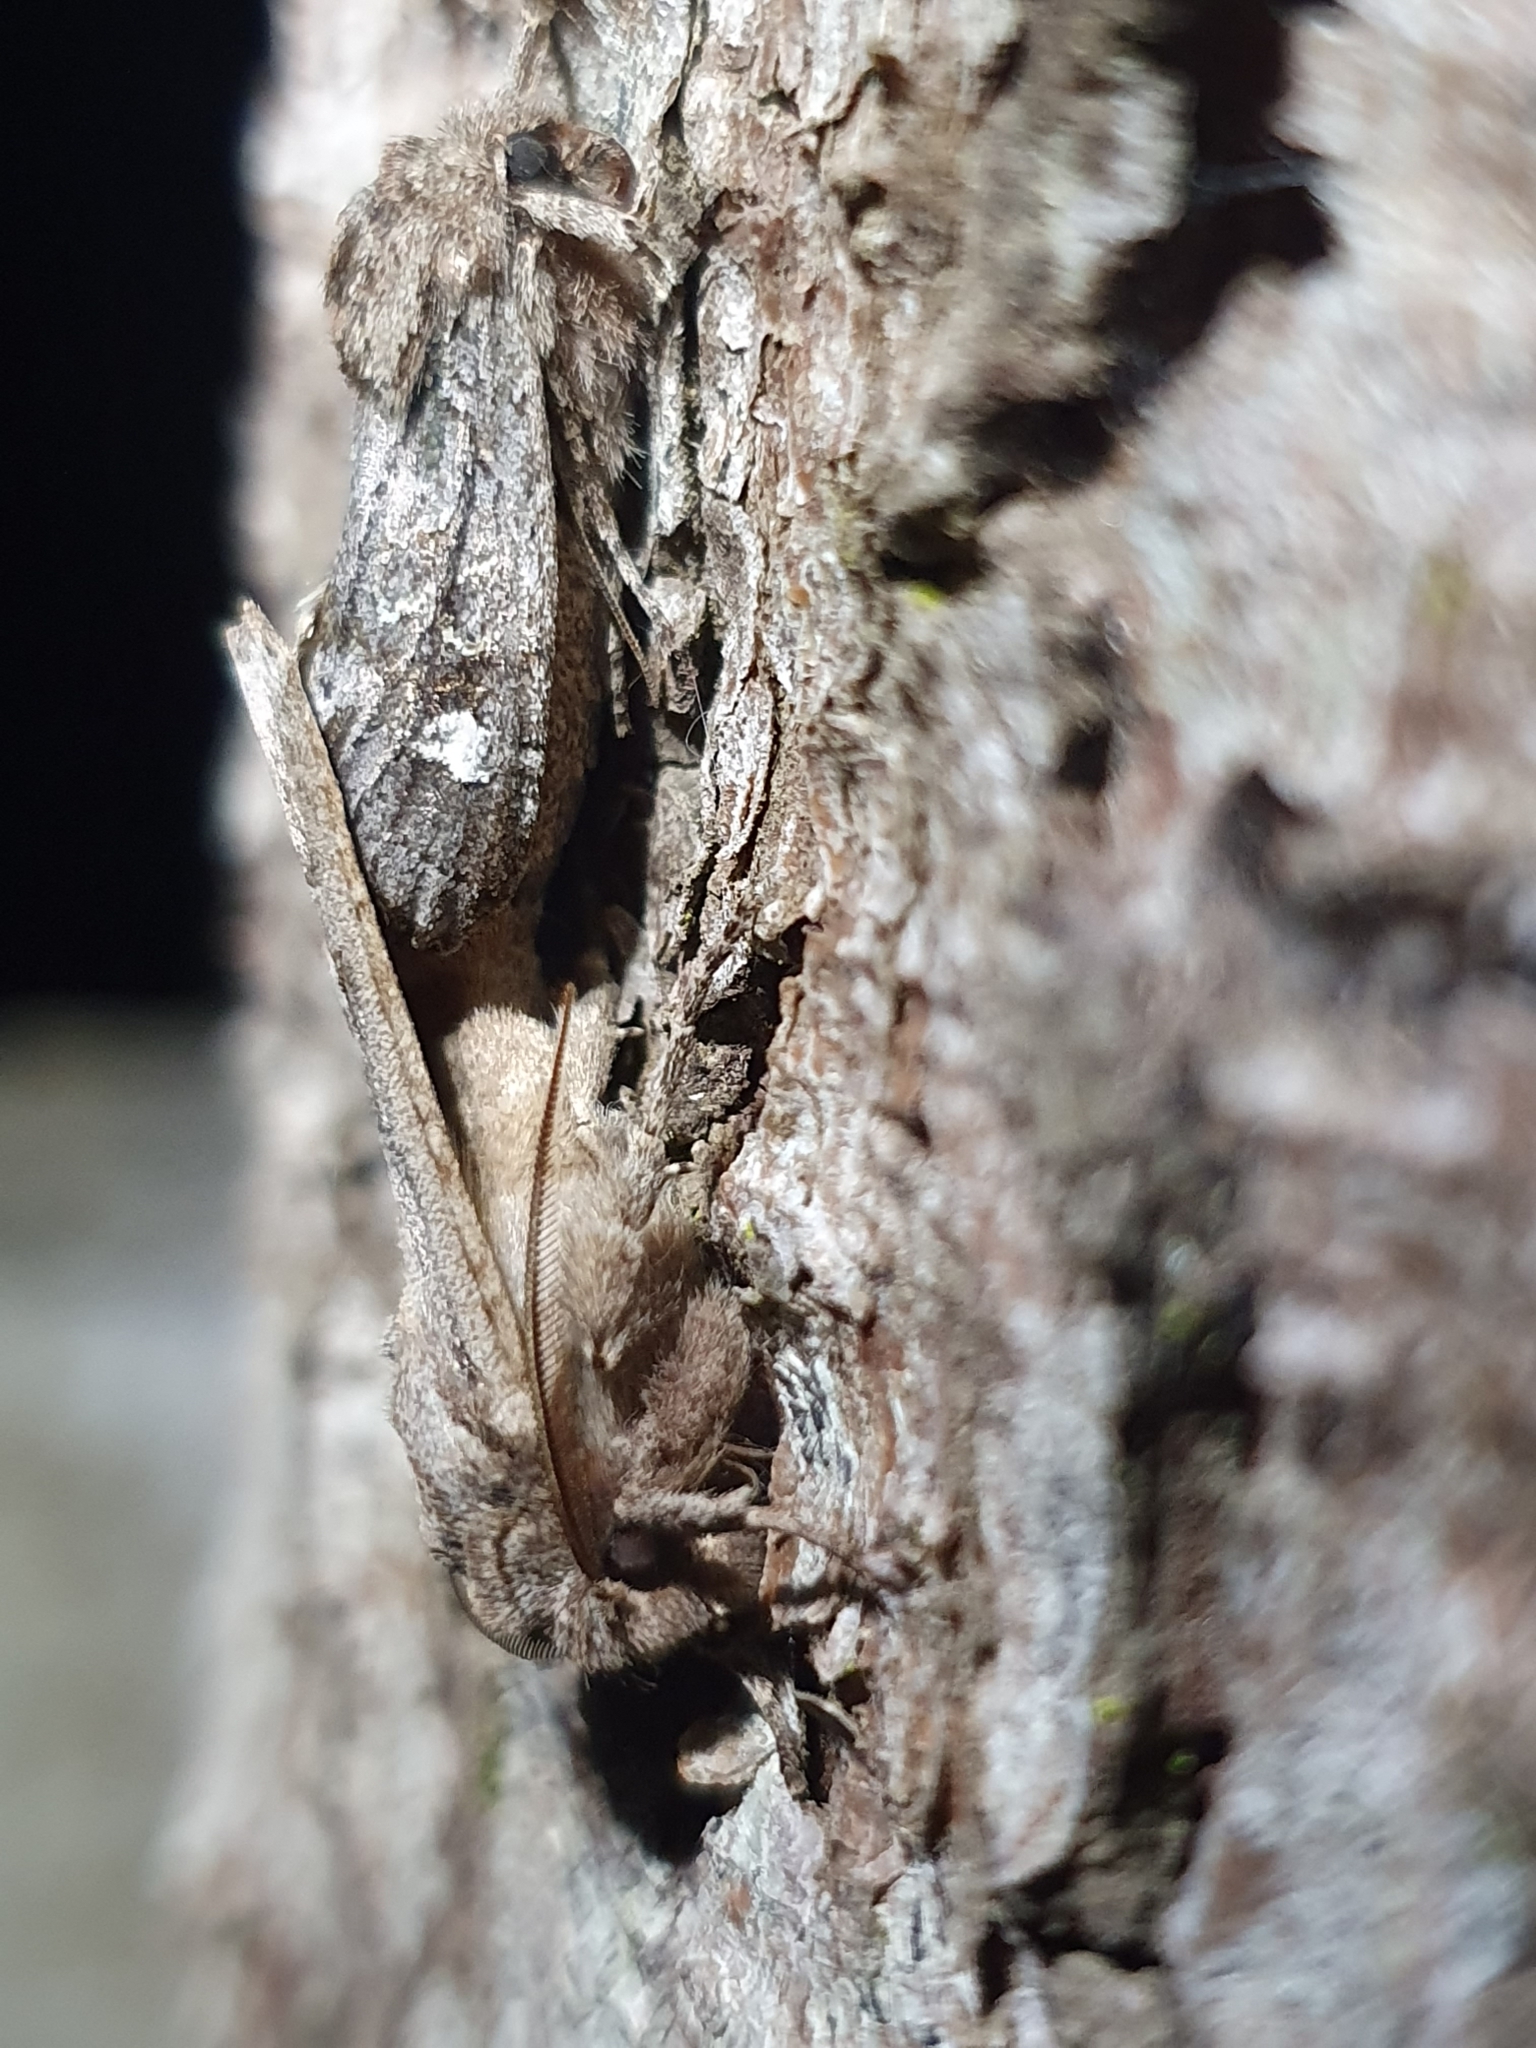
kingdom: Animalia
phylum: Arthropoda
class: Insecta
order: Lepidoptera
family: Noctuidae
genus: Ichneutica
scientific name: Ichneutica
